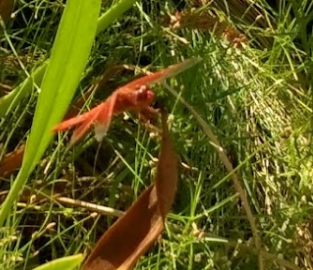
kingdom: Animalia
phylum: Arthropoda
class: Insecta
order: Odonata
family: Libellulidae
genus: Libellula
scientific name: Libellula saturata
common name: Flame skimmer
